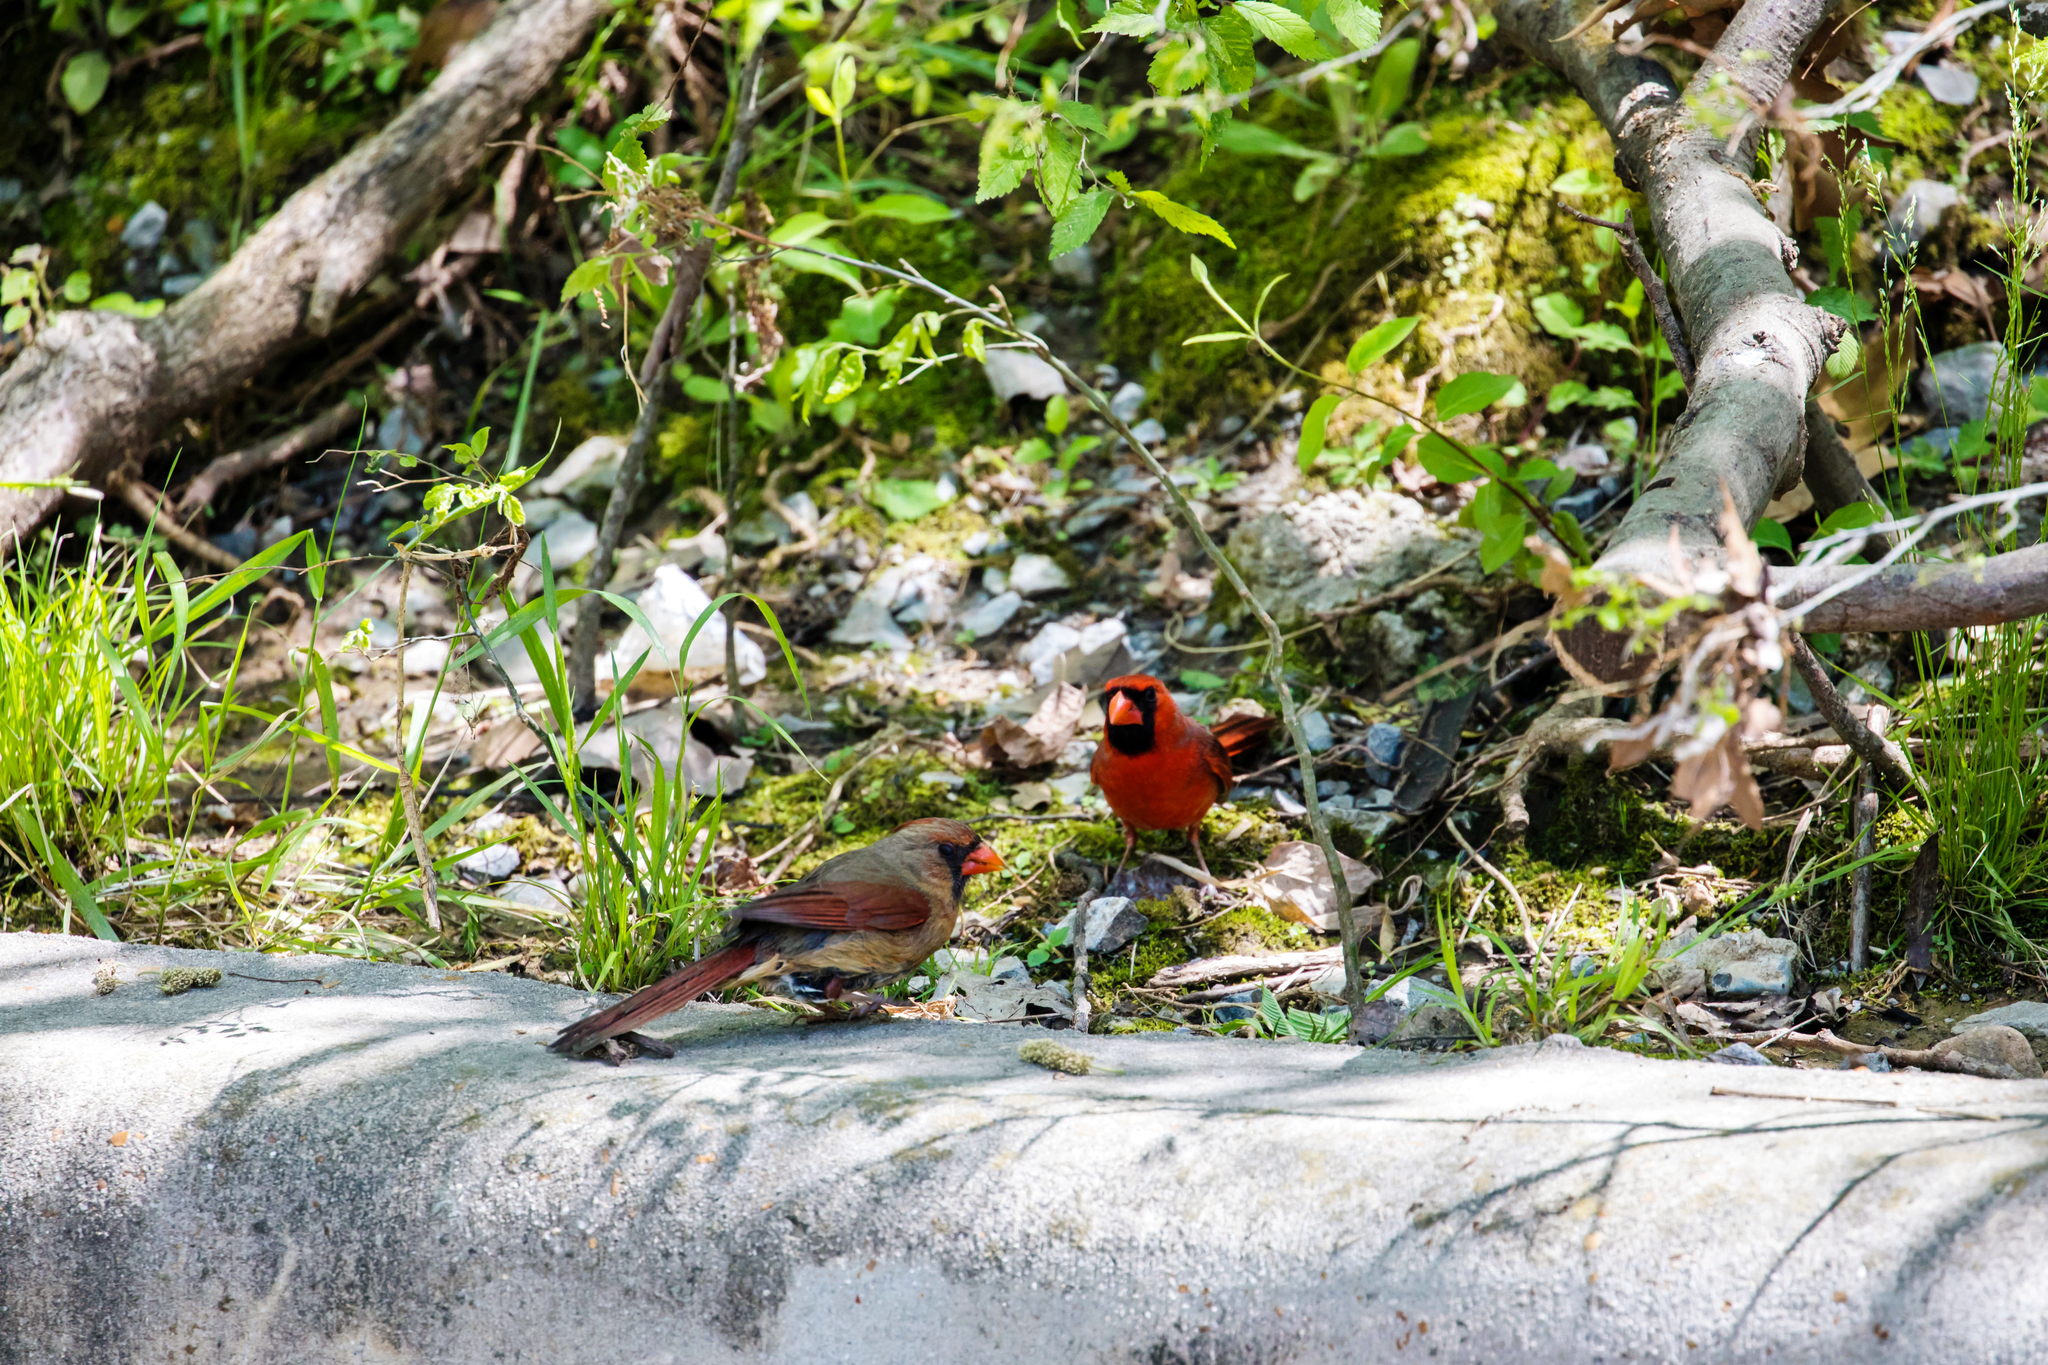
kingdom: Animalia
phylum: Chordata
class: Aves
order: Passeriformes
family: Cardinalidae
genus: Cardinalis
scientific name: Cardinalis cardinalis
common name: Northern cardinal
